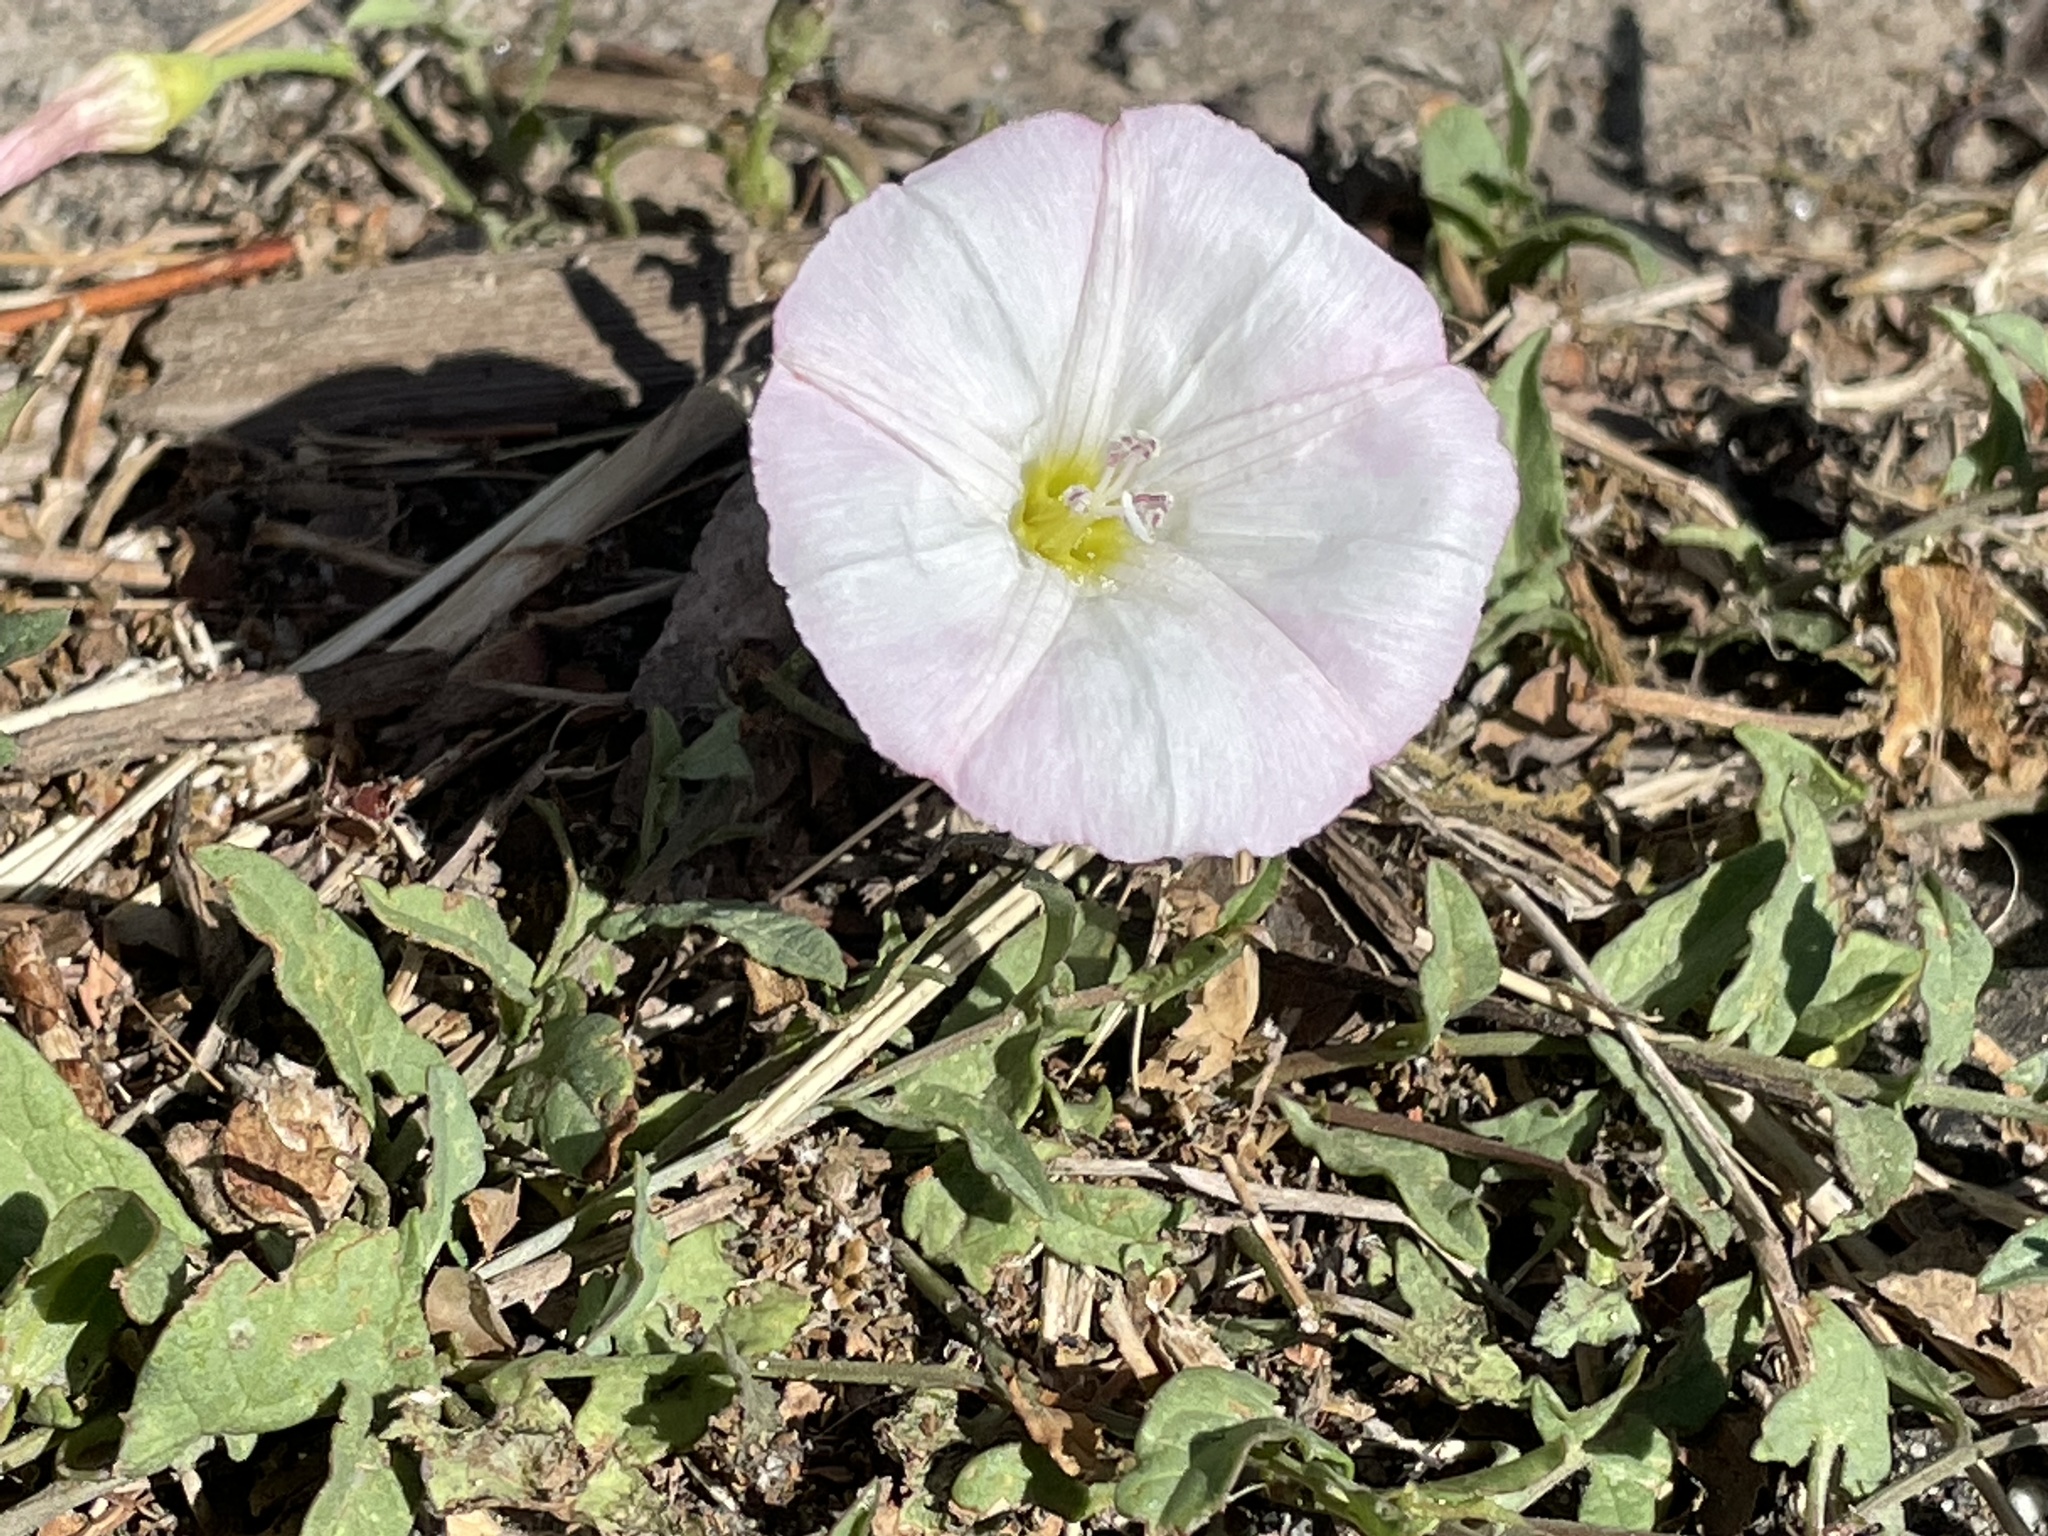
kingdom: Plantae
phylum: Tracheophyta
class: Magnoliopsida
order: Solanales
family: Convolvulaceae
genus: Convolvulus
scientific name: Convolvulus arvensis
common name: Field bindweed
